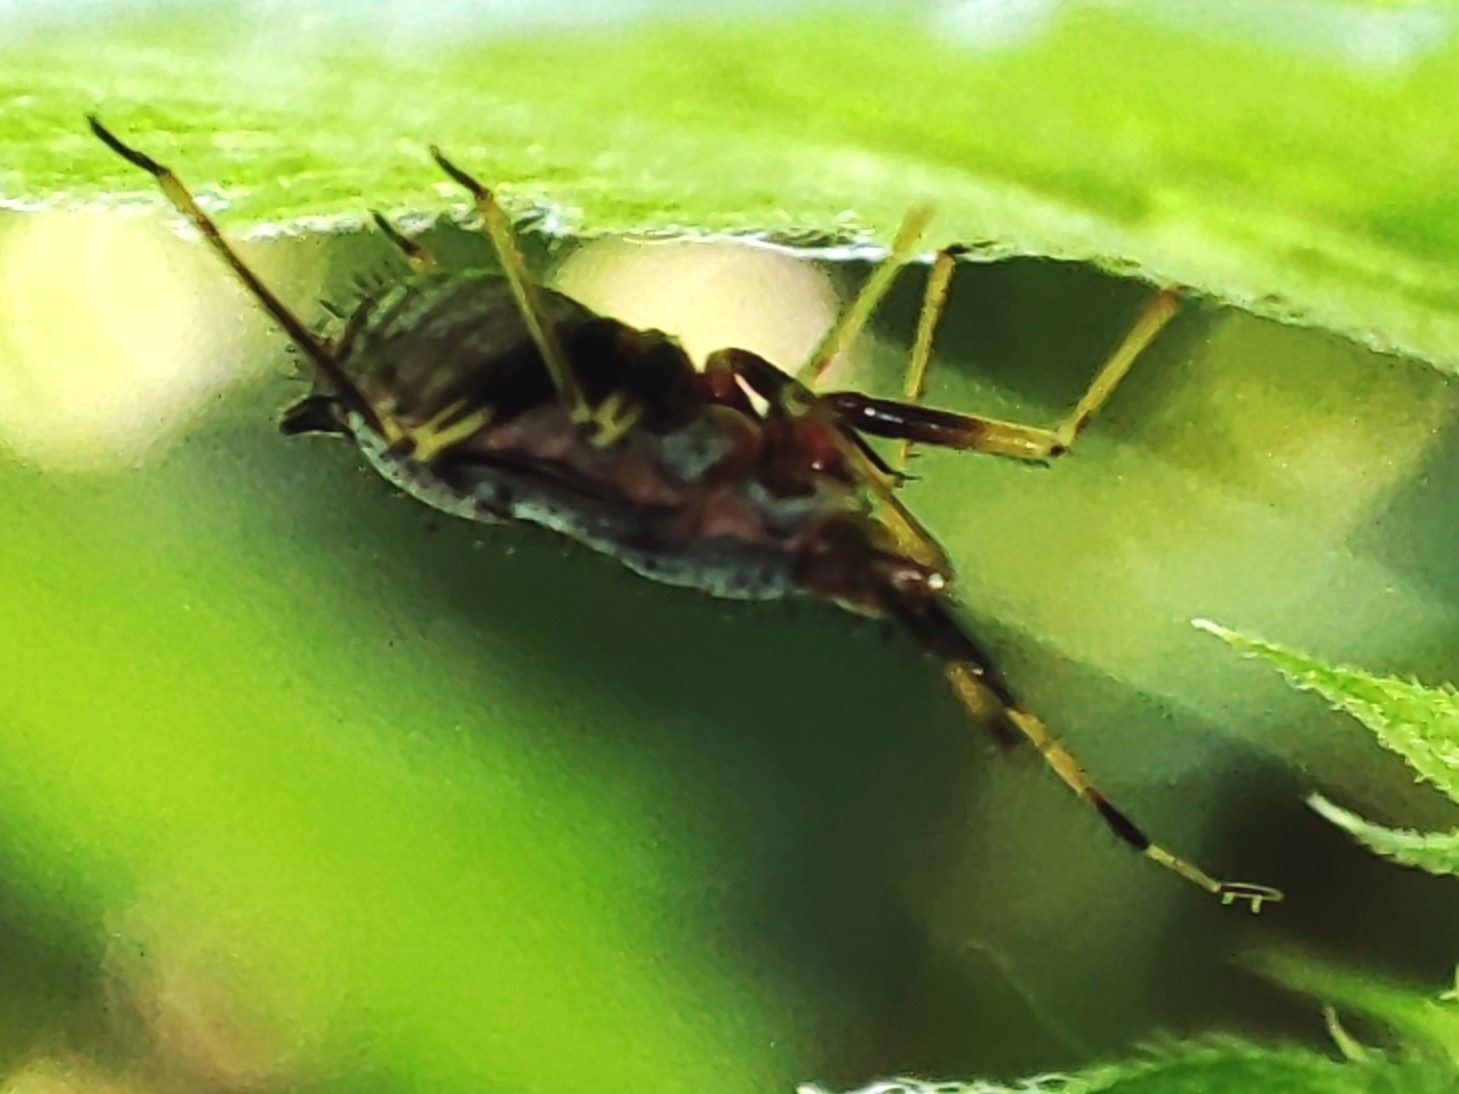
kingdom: Animalia
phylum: Arthropoda
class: Insecta
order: Hemiptera
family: Miridae
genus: Deraeocoris
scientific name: Deraeocoris ruber
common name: Plant bug
